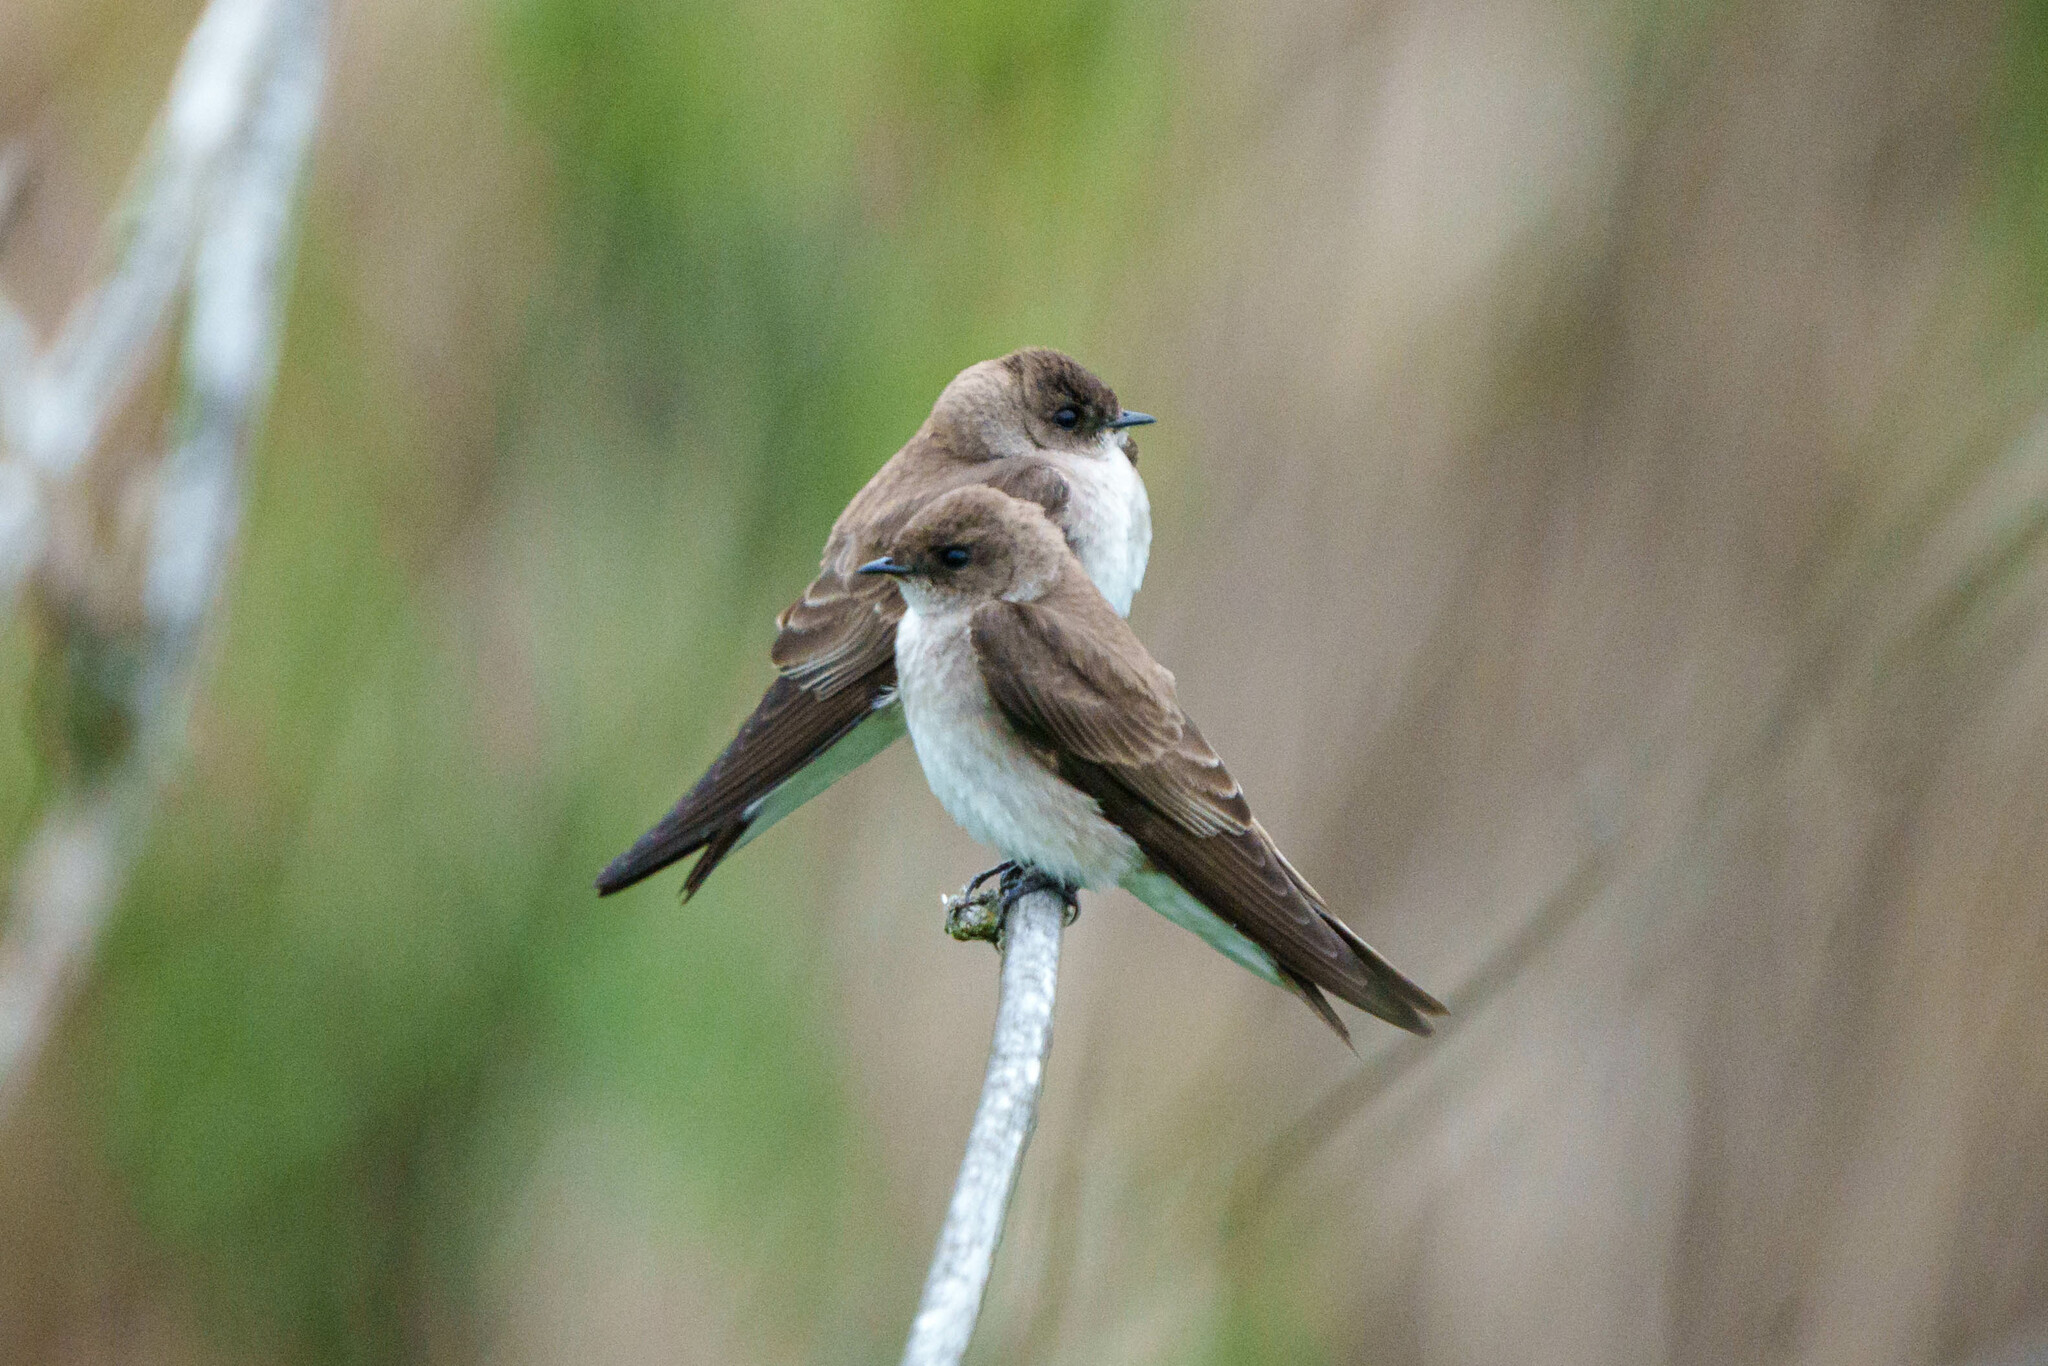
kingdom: Animalia
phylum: Chordata
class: Aves
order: Passeriformes
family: Hirundinidae
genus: Stelgidopteryx
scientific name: Stelgidopteryx serripennis
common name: Northern rough-winged swallow
